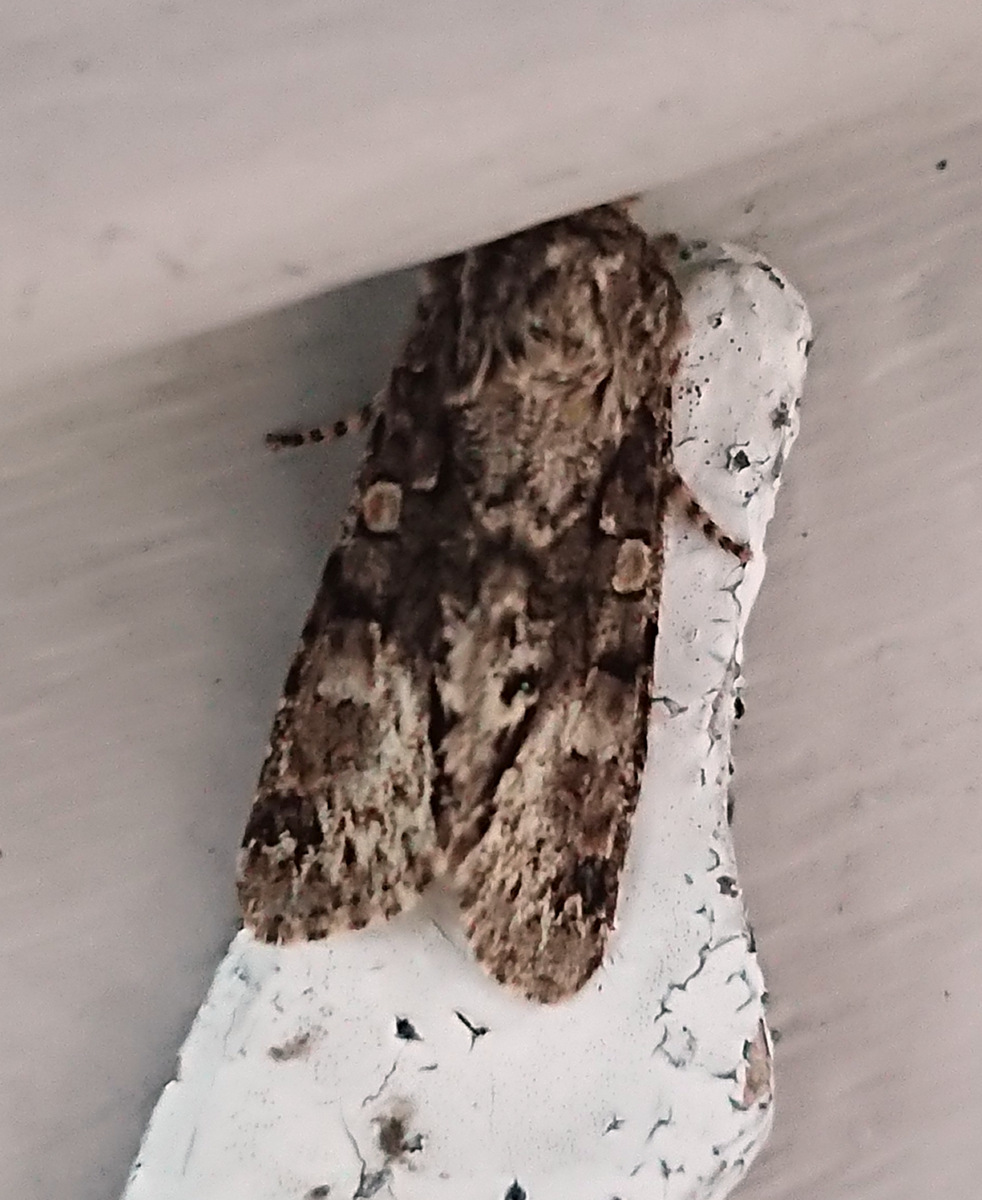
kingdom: Animalia
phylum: Arthropoda
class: Insecta
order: Lepidoptera
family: Noctuidae
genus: Psaphida
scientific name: Psaphida grotei
